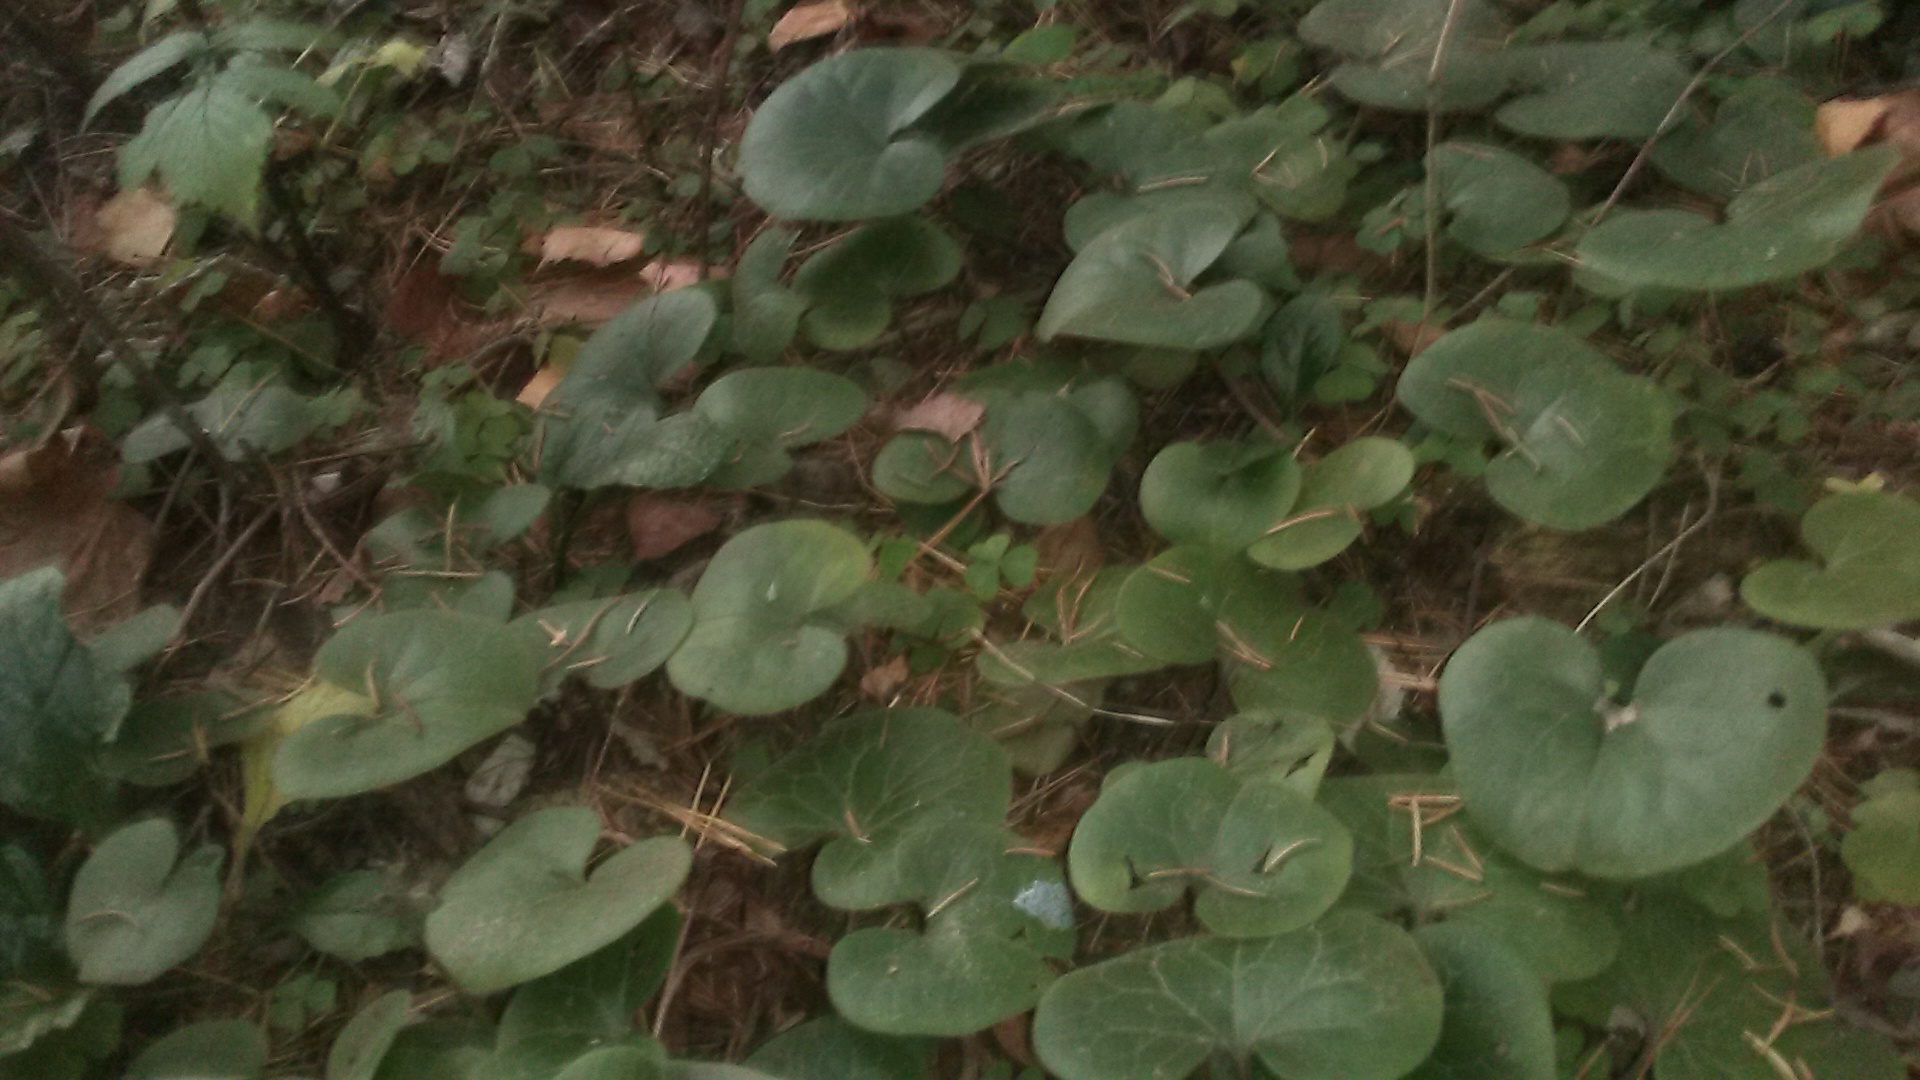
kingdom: Plantae
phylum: Tracheophyta
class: Magnoliopsida
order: Piperales
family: Aristolochiaceae
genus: Asarum
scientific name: Asarum europaeum
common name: Asarabacca
